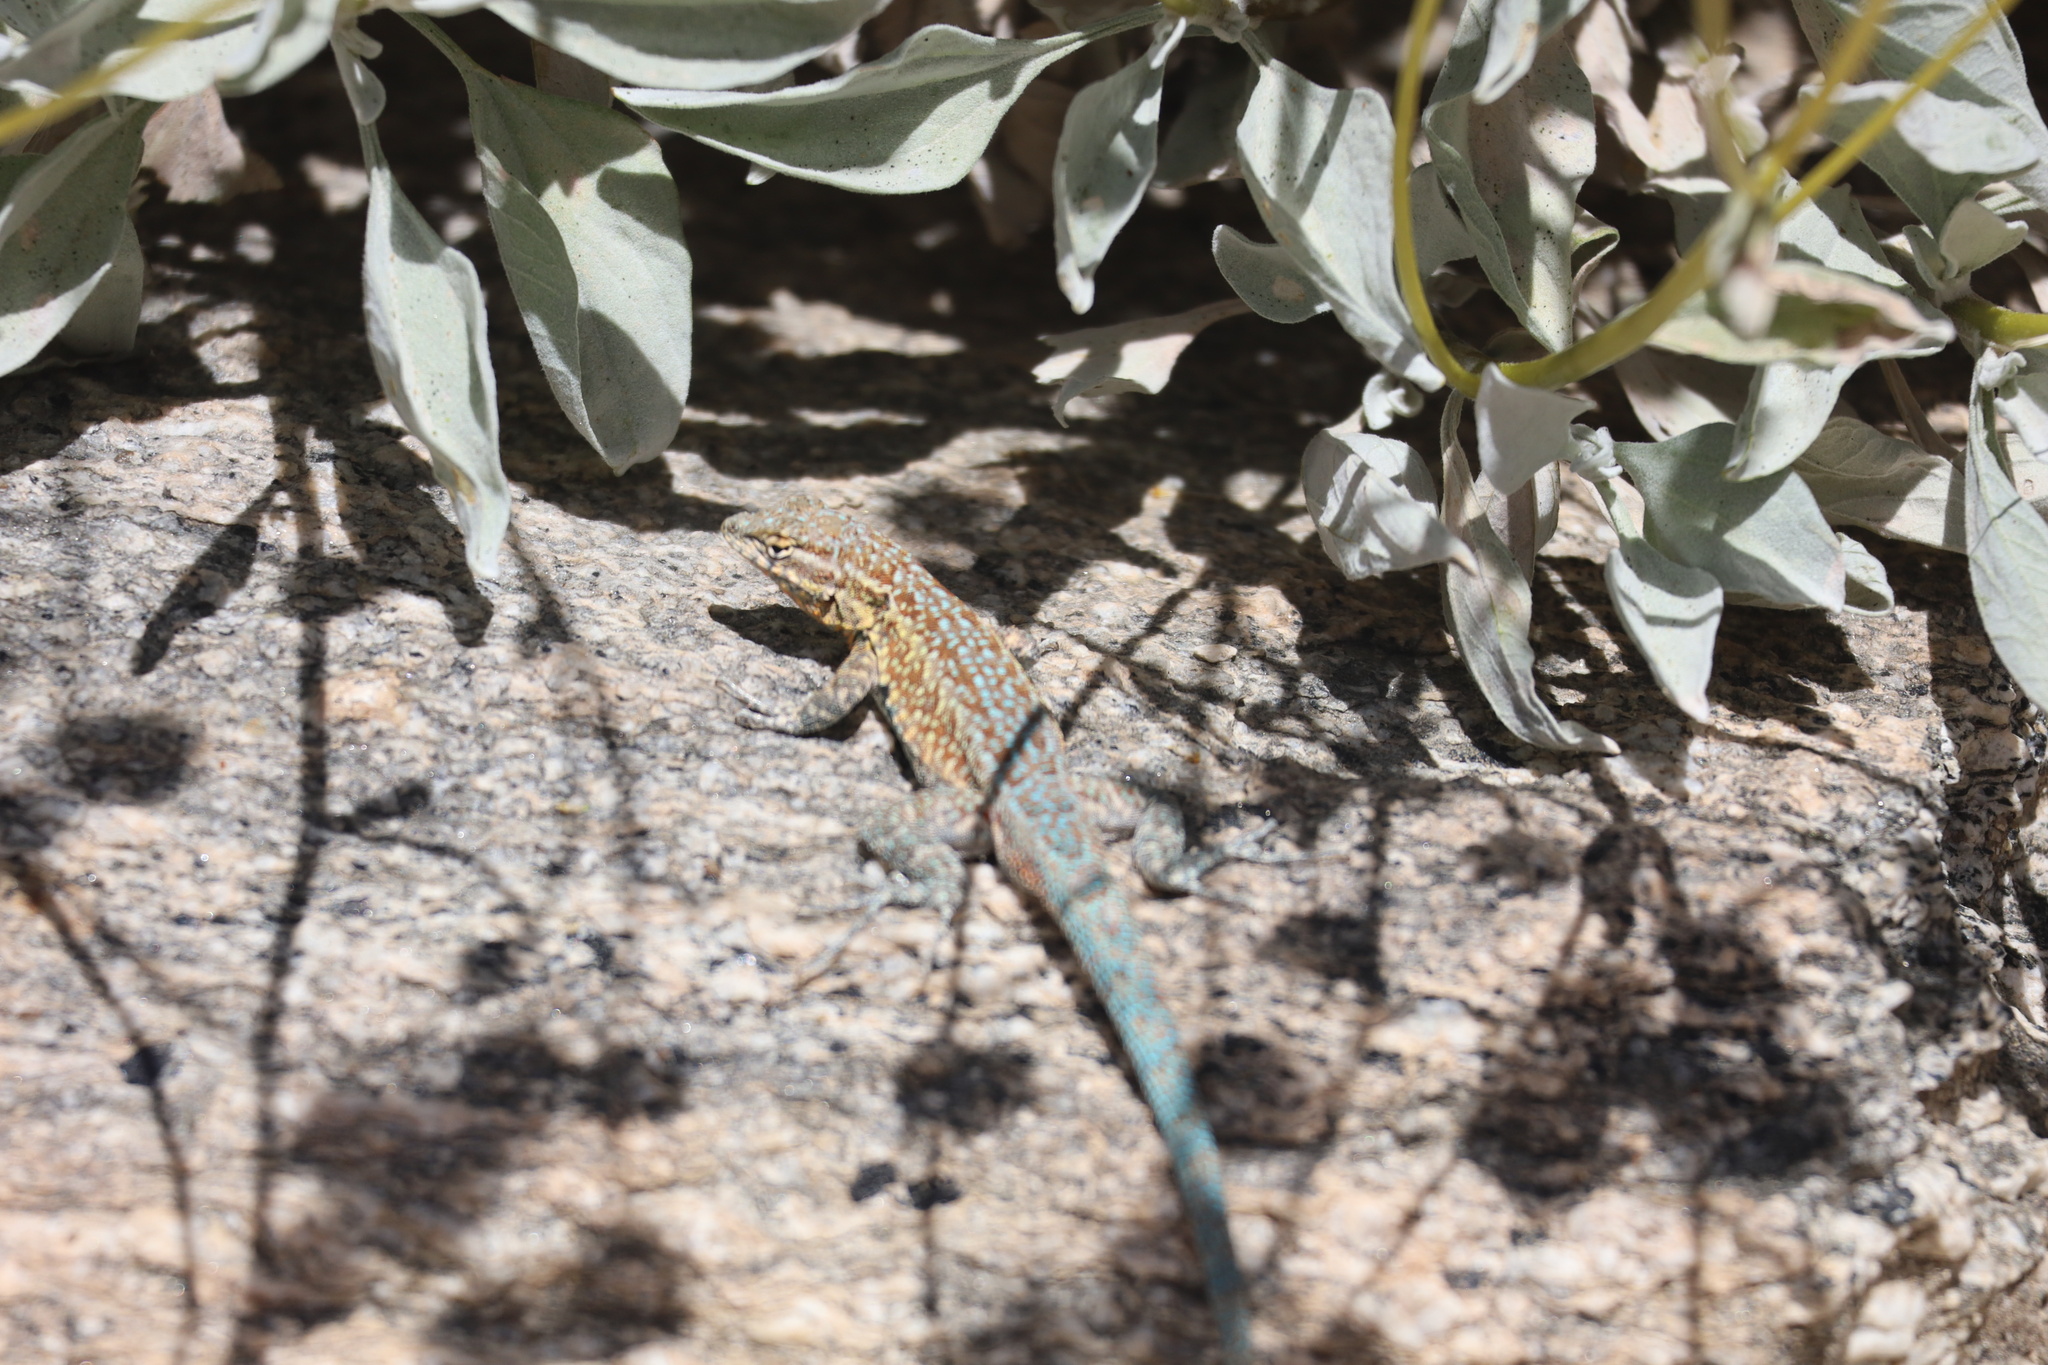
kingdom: Animalia
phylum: Chordata
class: Squamata
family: Phrynosomatidae
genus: Uta
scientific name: Uta stansburiana
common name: Side-blotched lizard
